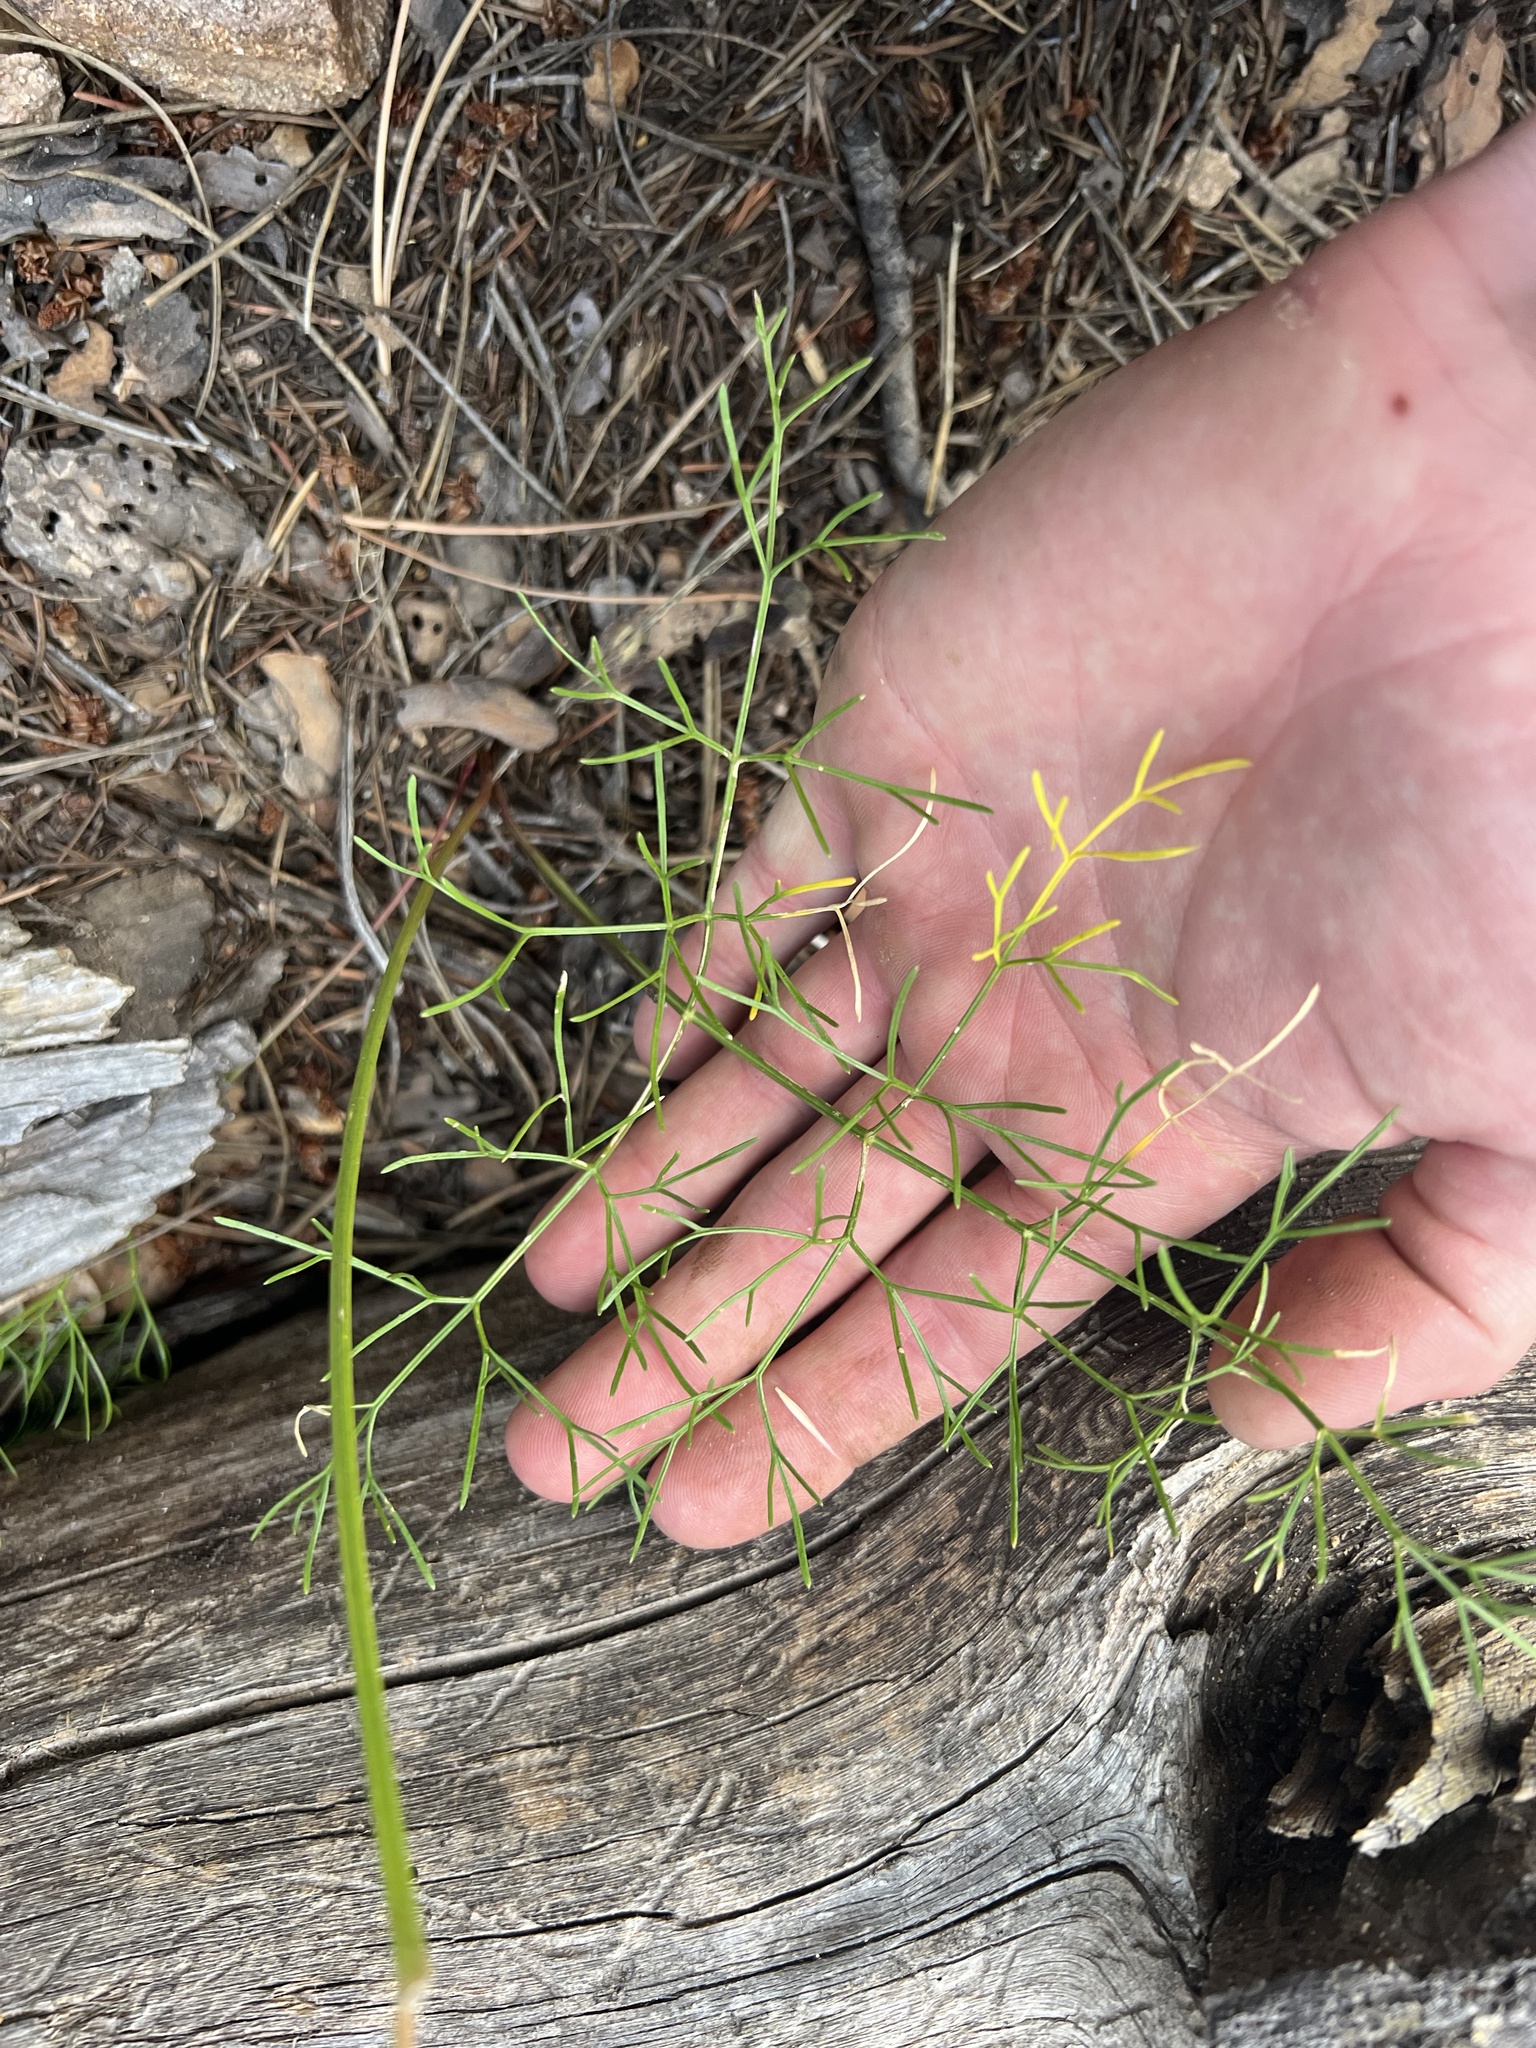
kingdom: Plantae
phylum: Tracheophyta
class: Magnoliopsida
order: Apiales
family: Apiaceae
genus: Harbouria
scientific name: Harbouria trachypleura
